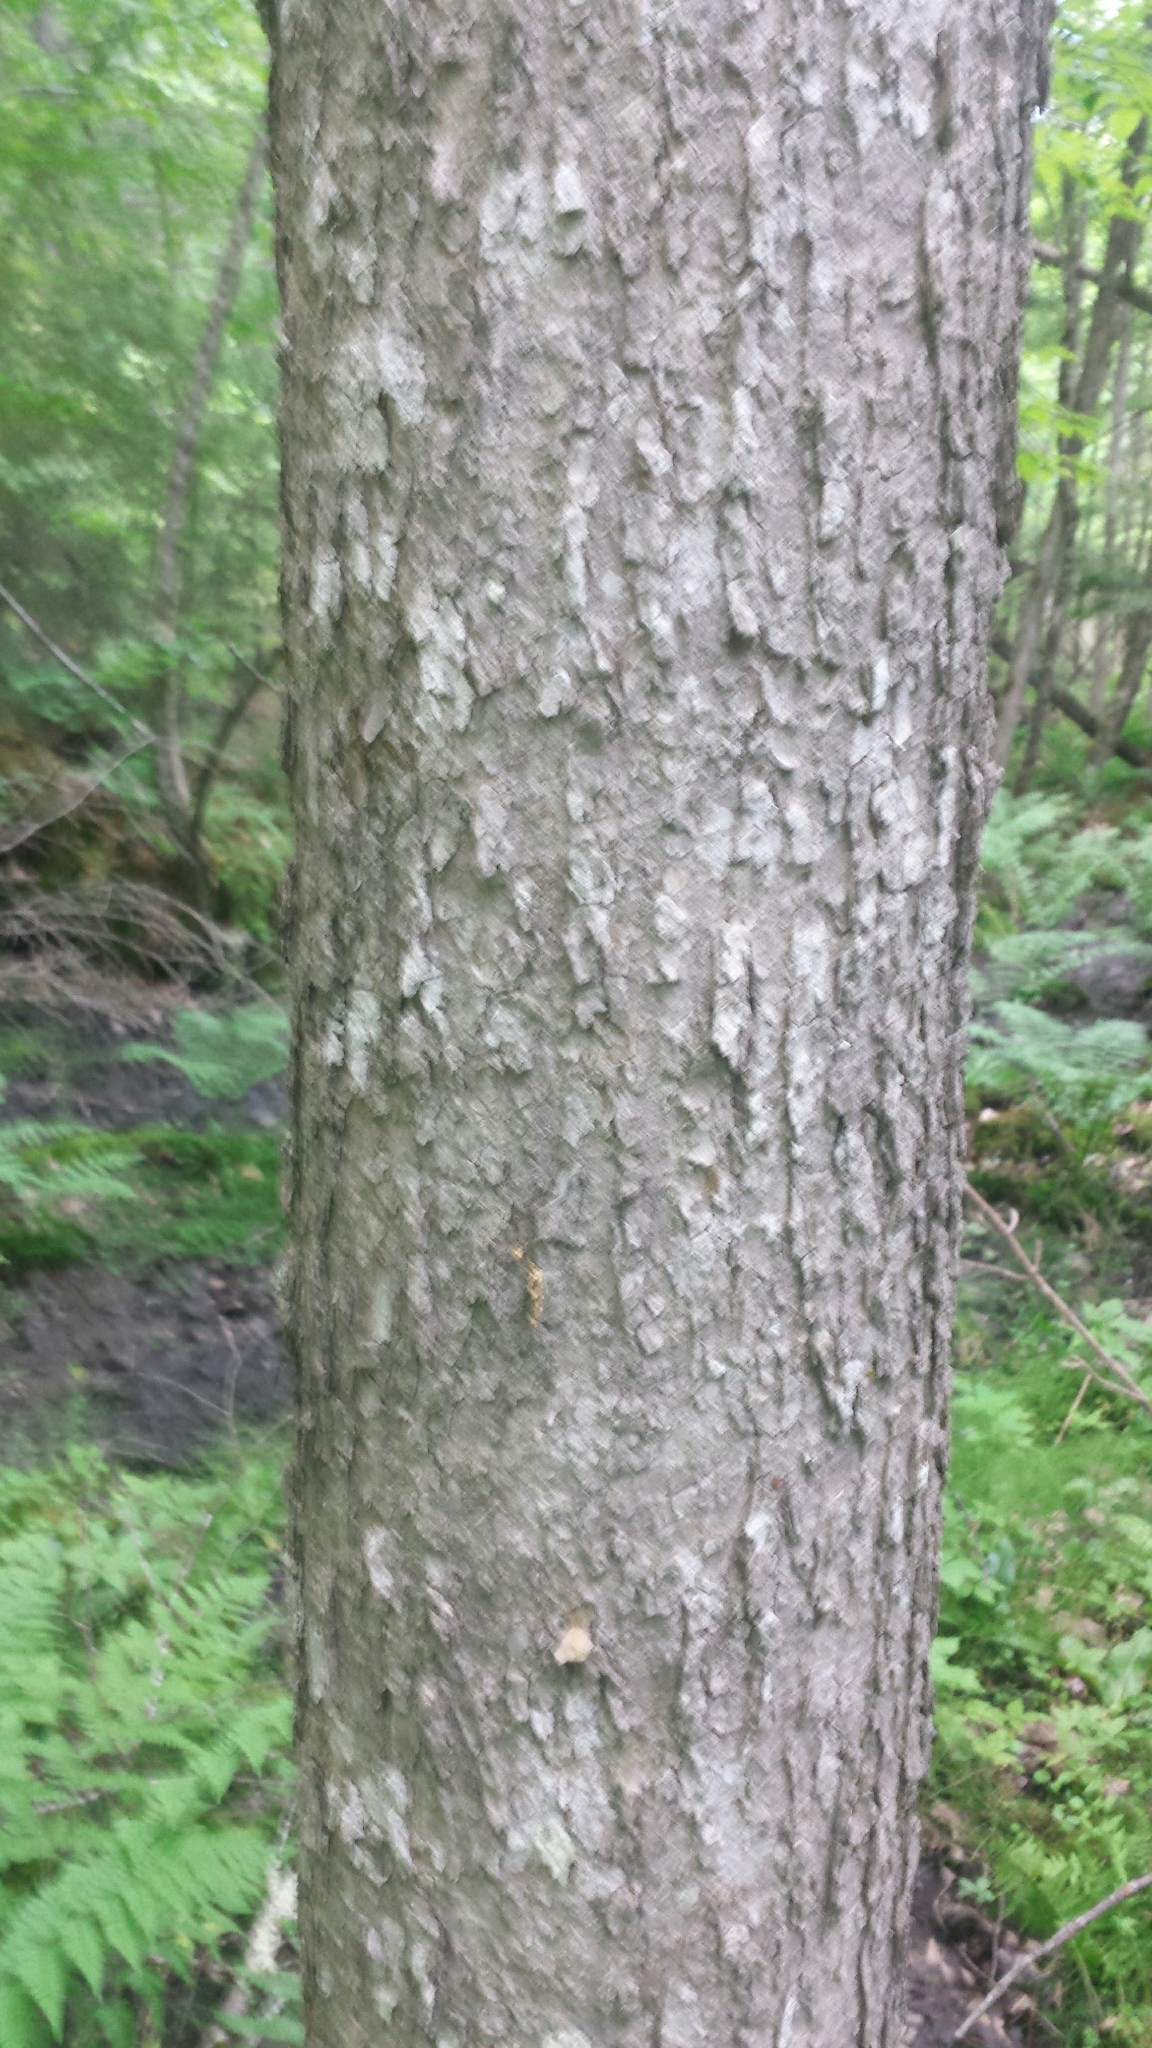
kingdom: Plantae
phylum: Tracheophyta
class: Magnoliopsida
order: Lamiales
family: Oleaceae
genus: Fraxinus
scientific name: Fraxinus nigra
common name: Black ash
